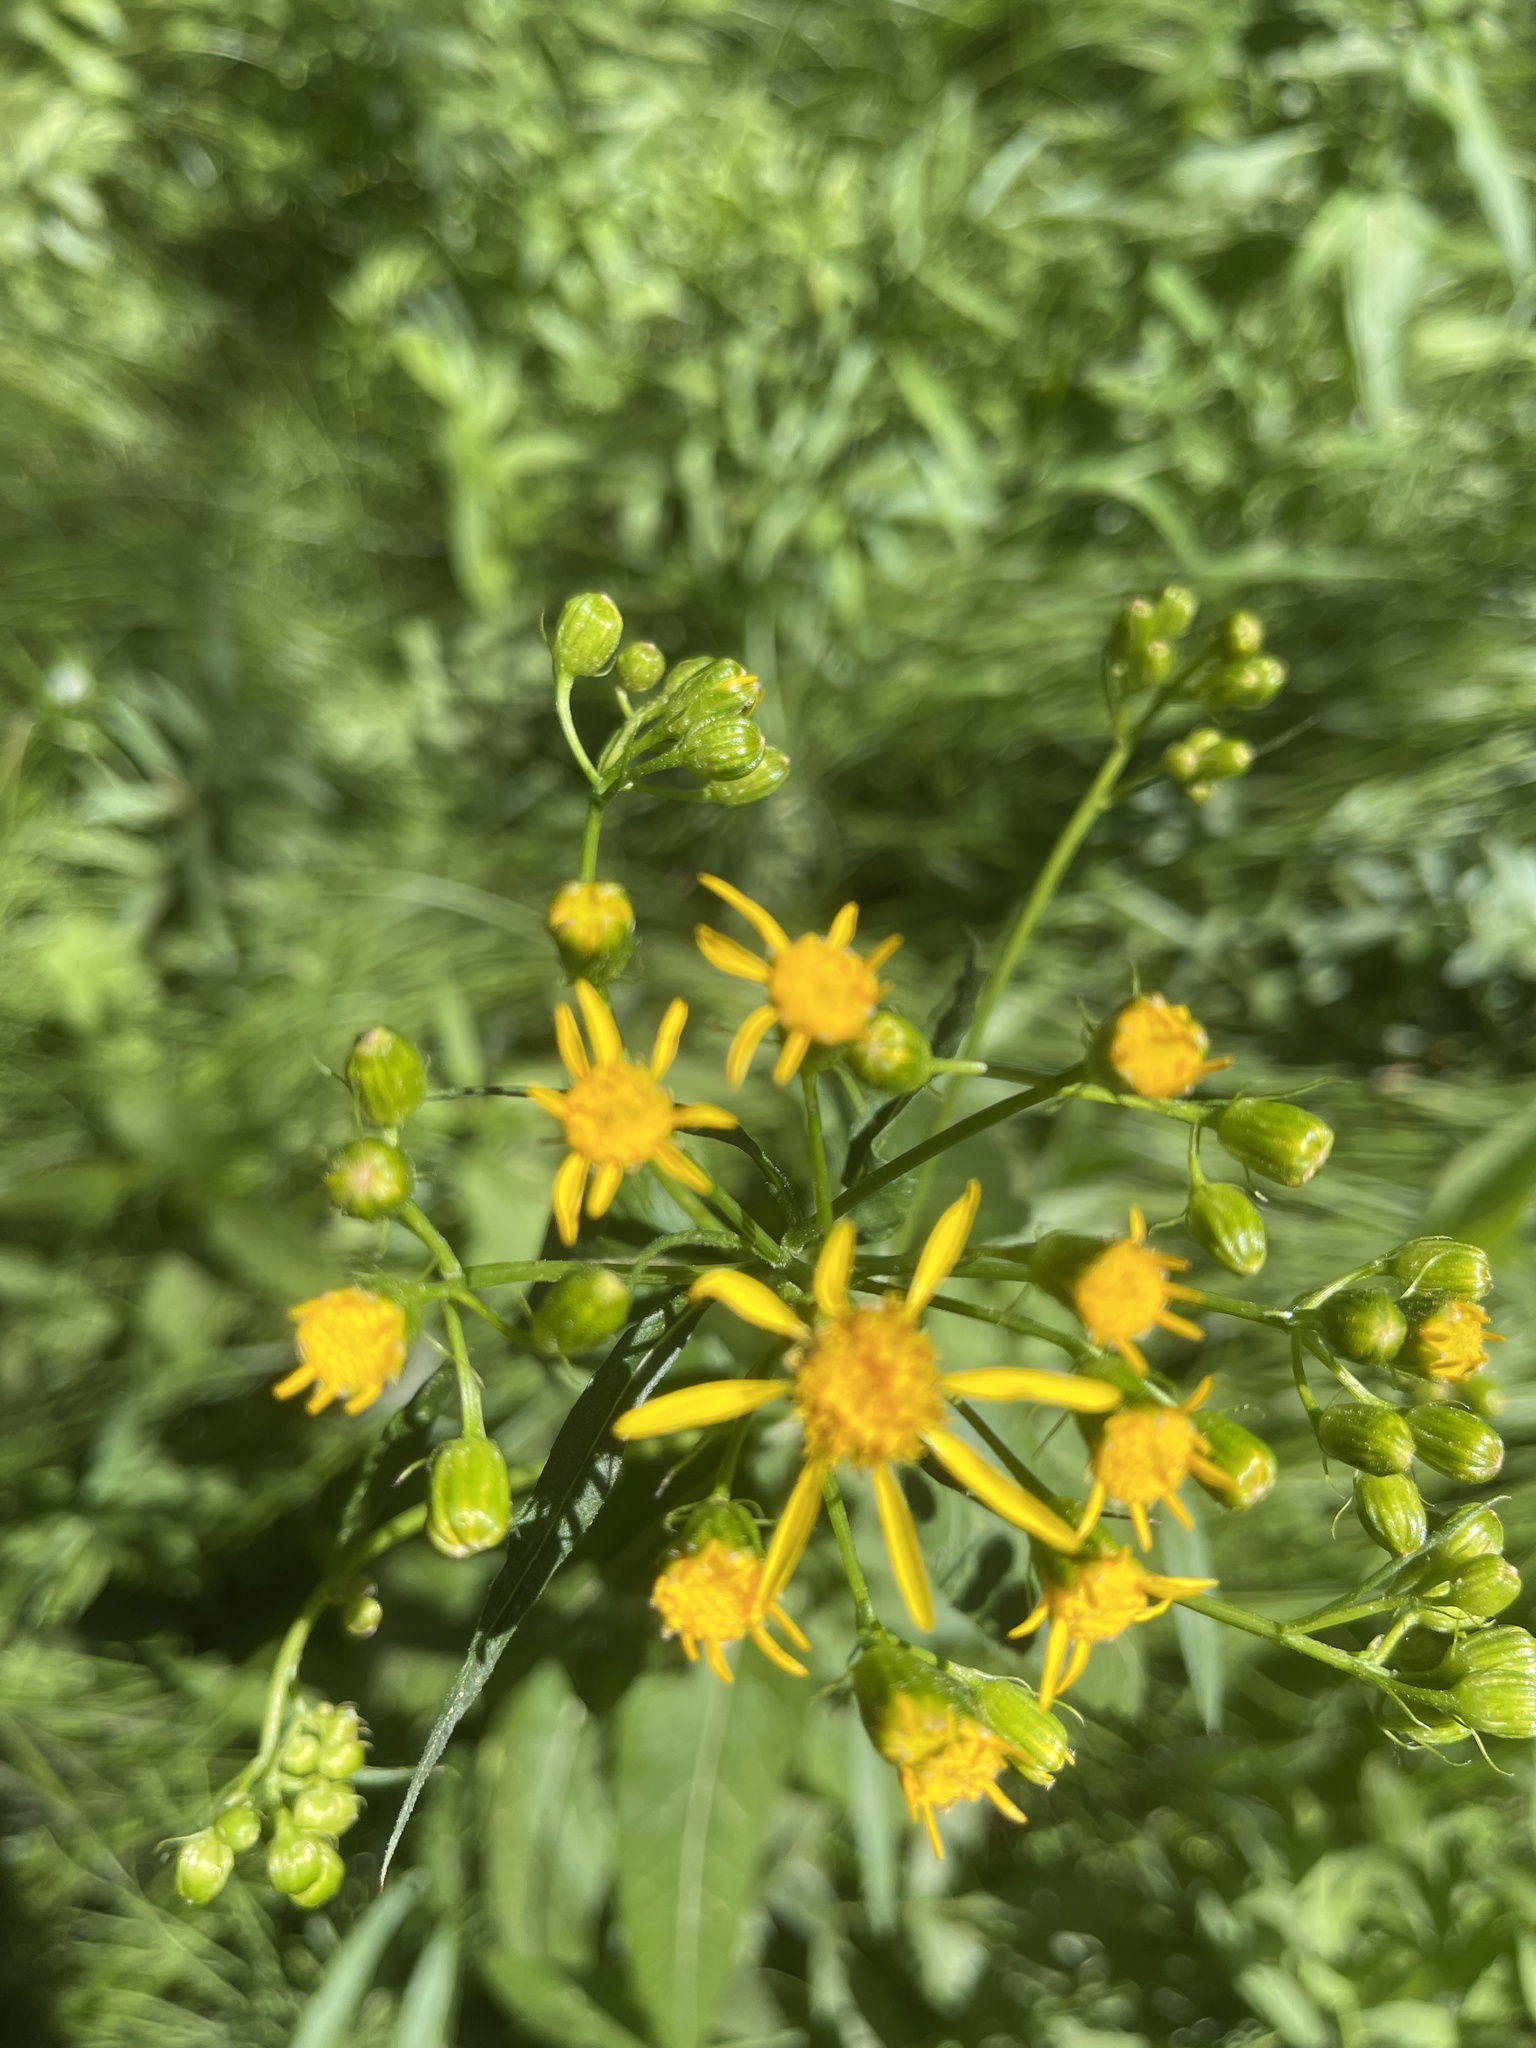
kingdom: Plantae
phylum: Tracheophyta
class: Magnoliopsida
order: Asterales
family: Asteraceae
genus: Senecio
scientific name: Senecio triangularis
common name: Arrowleaf butterweed
